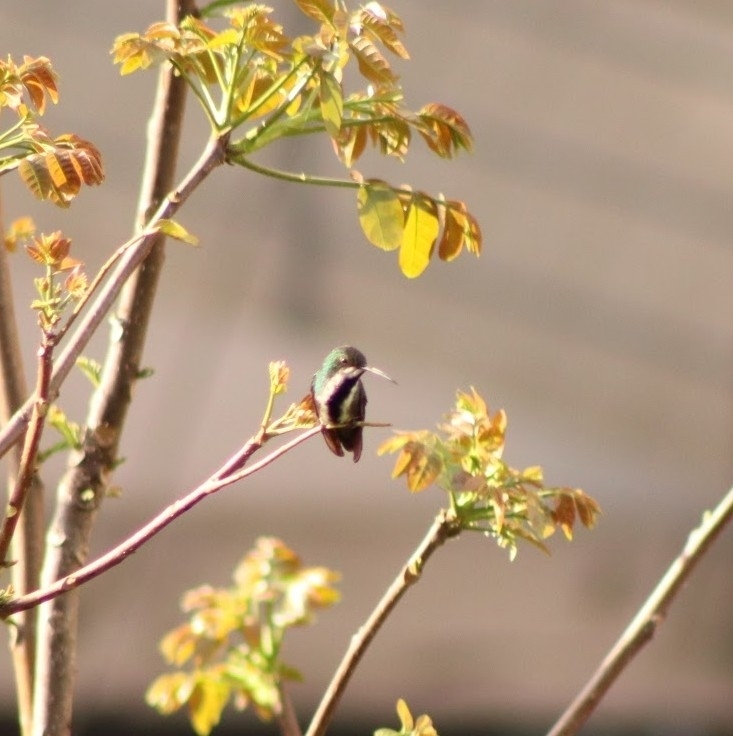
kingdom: Animalia
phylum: Chordata
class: Aves
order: Apodiformes
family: Trochilidae
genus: Anthracothorax
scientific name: Anthracothorax nigricollis
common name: Black-throated mango
